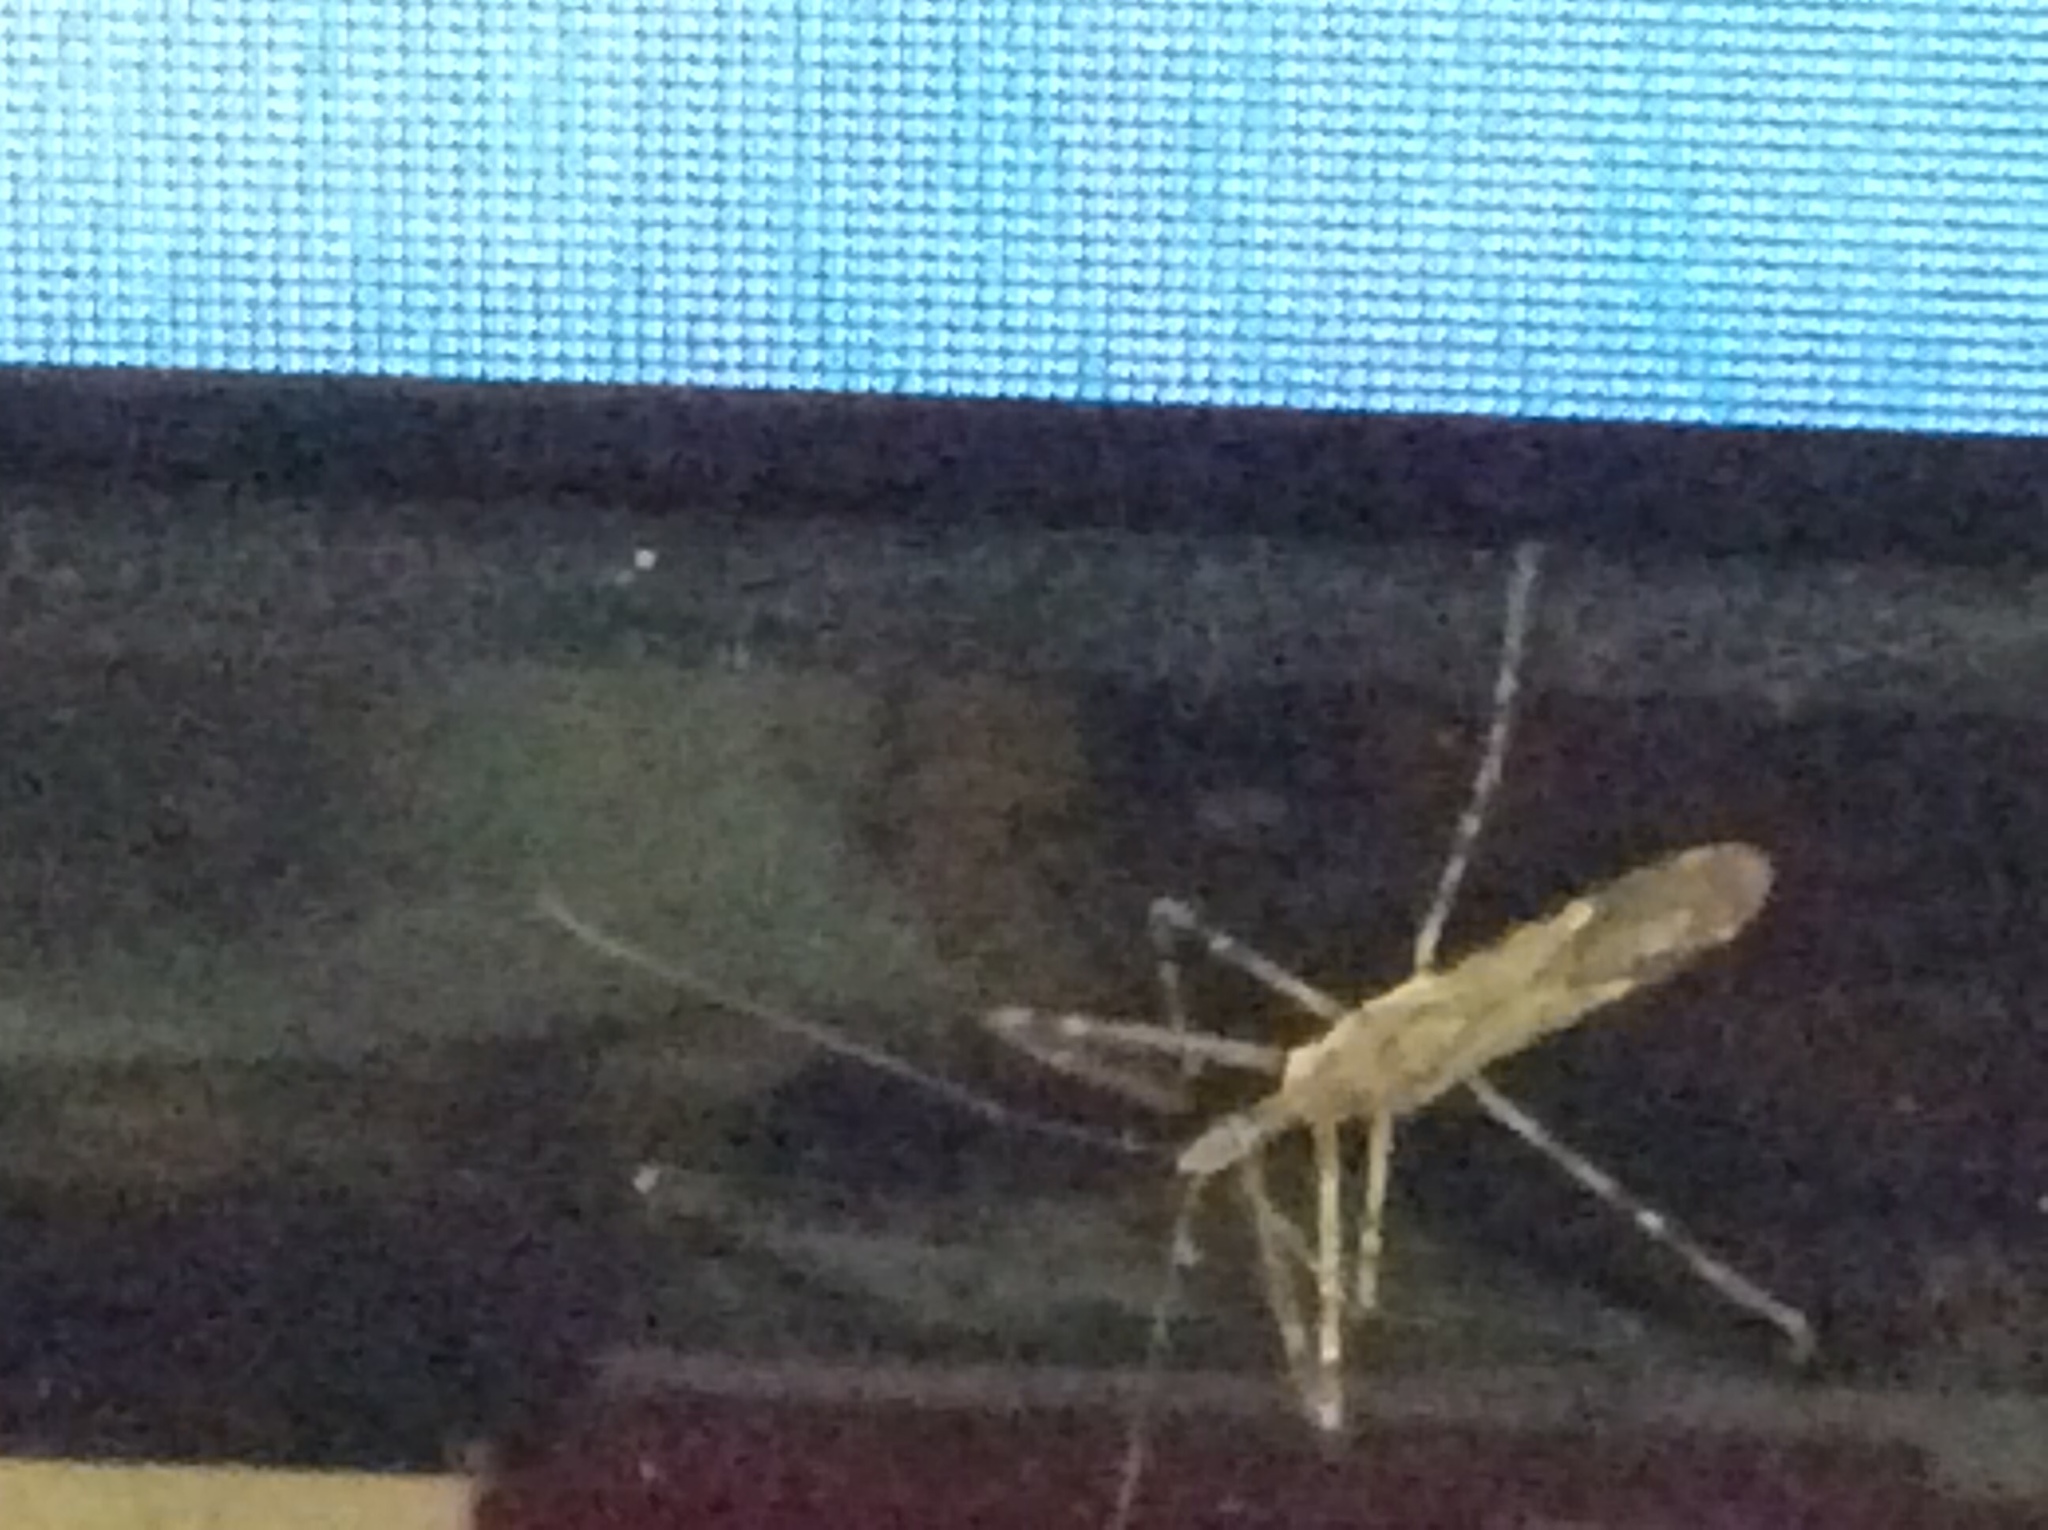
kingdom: Animalia
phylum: Arthropoda
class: Insecta
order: Hemiptera
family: Reduviidae
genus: Zelus
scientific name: Zelus tetracanthus
